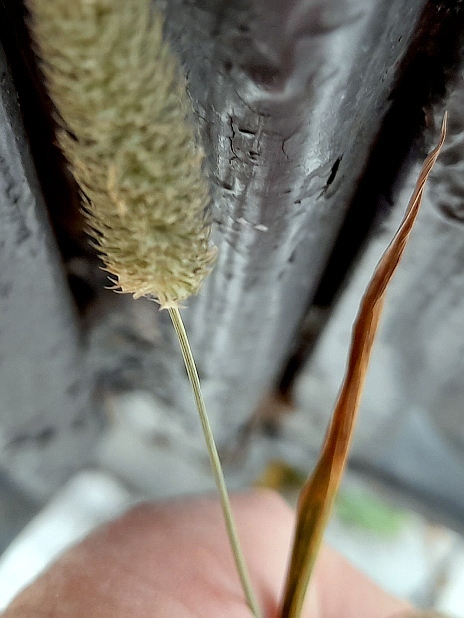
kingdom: Plantae
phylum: Tracheophyta
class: Liliopsida
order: Poales
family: Poaceae
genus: Phleum
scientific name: Phleum pratense
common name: Timothy grass
